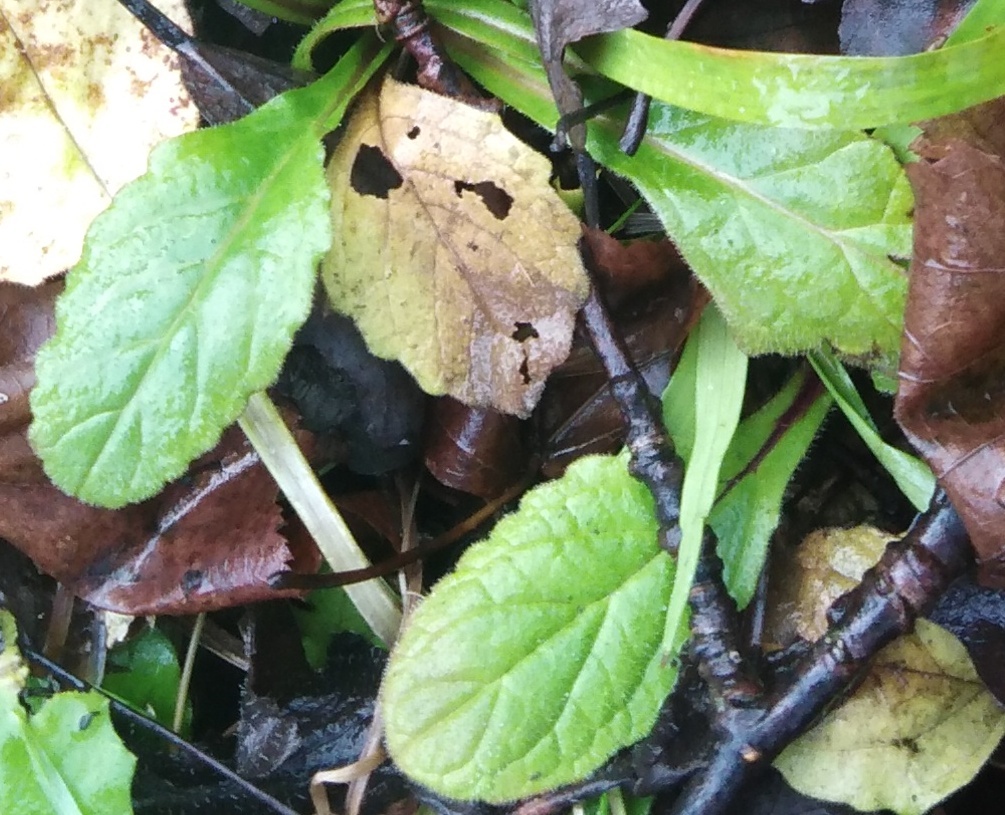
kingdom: Plantae
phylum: Tracheophyta
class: Magnoliopsida
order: Lamiales
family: Lamiaceae
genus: Ajuga
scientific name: Ajuga reptans
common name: Bugle
